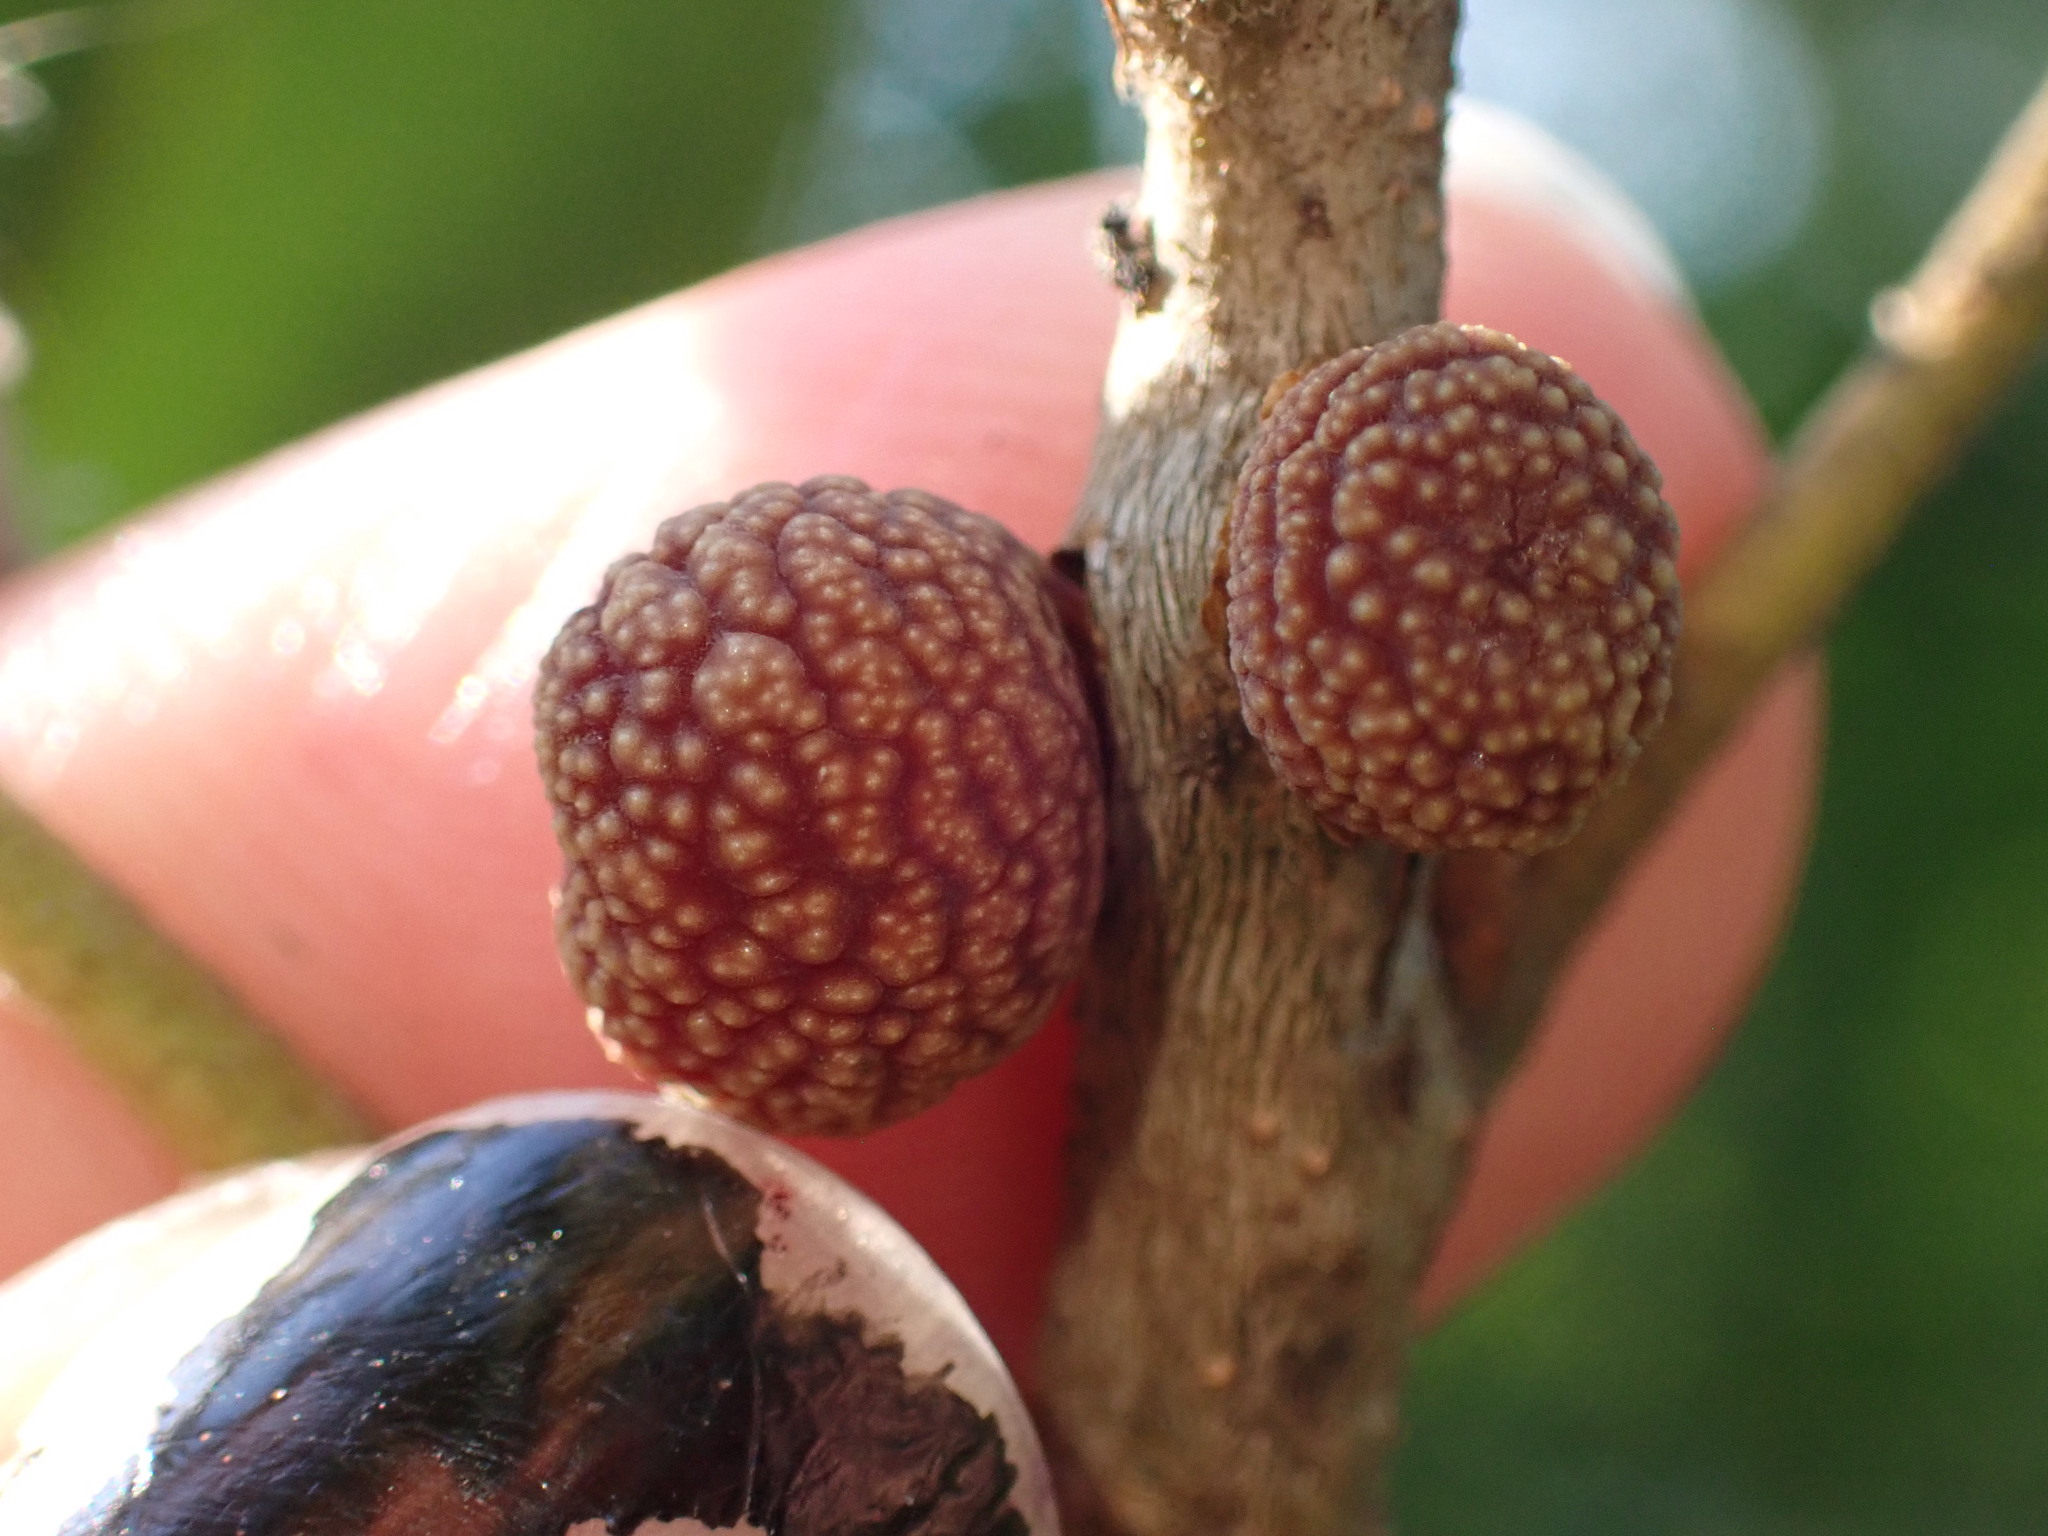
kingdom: Animalia
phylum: Arthropoda
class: Insecta
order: Hymenoptera
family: Cynipidae
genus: Kokkocynips
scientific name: Kokkocynips imbricariae
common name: Banded bullet gall wasp
